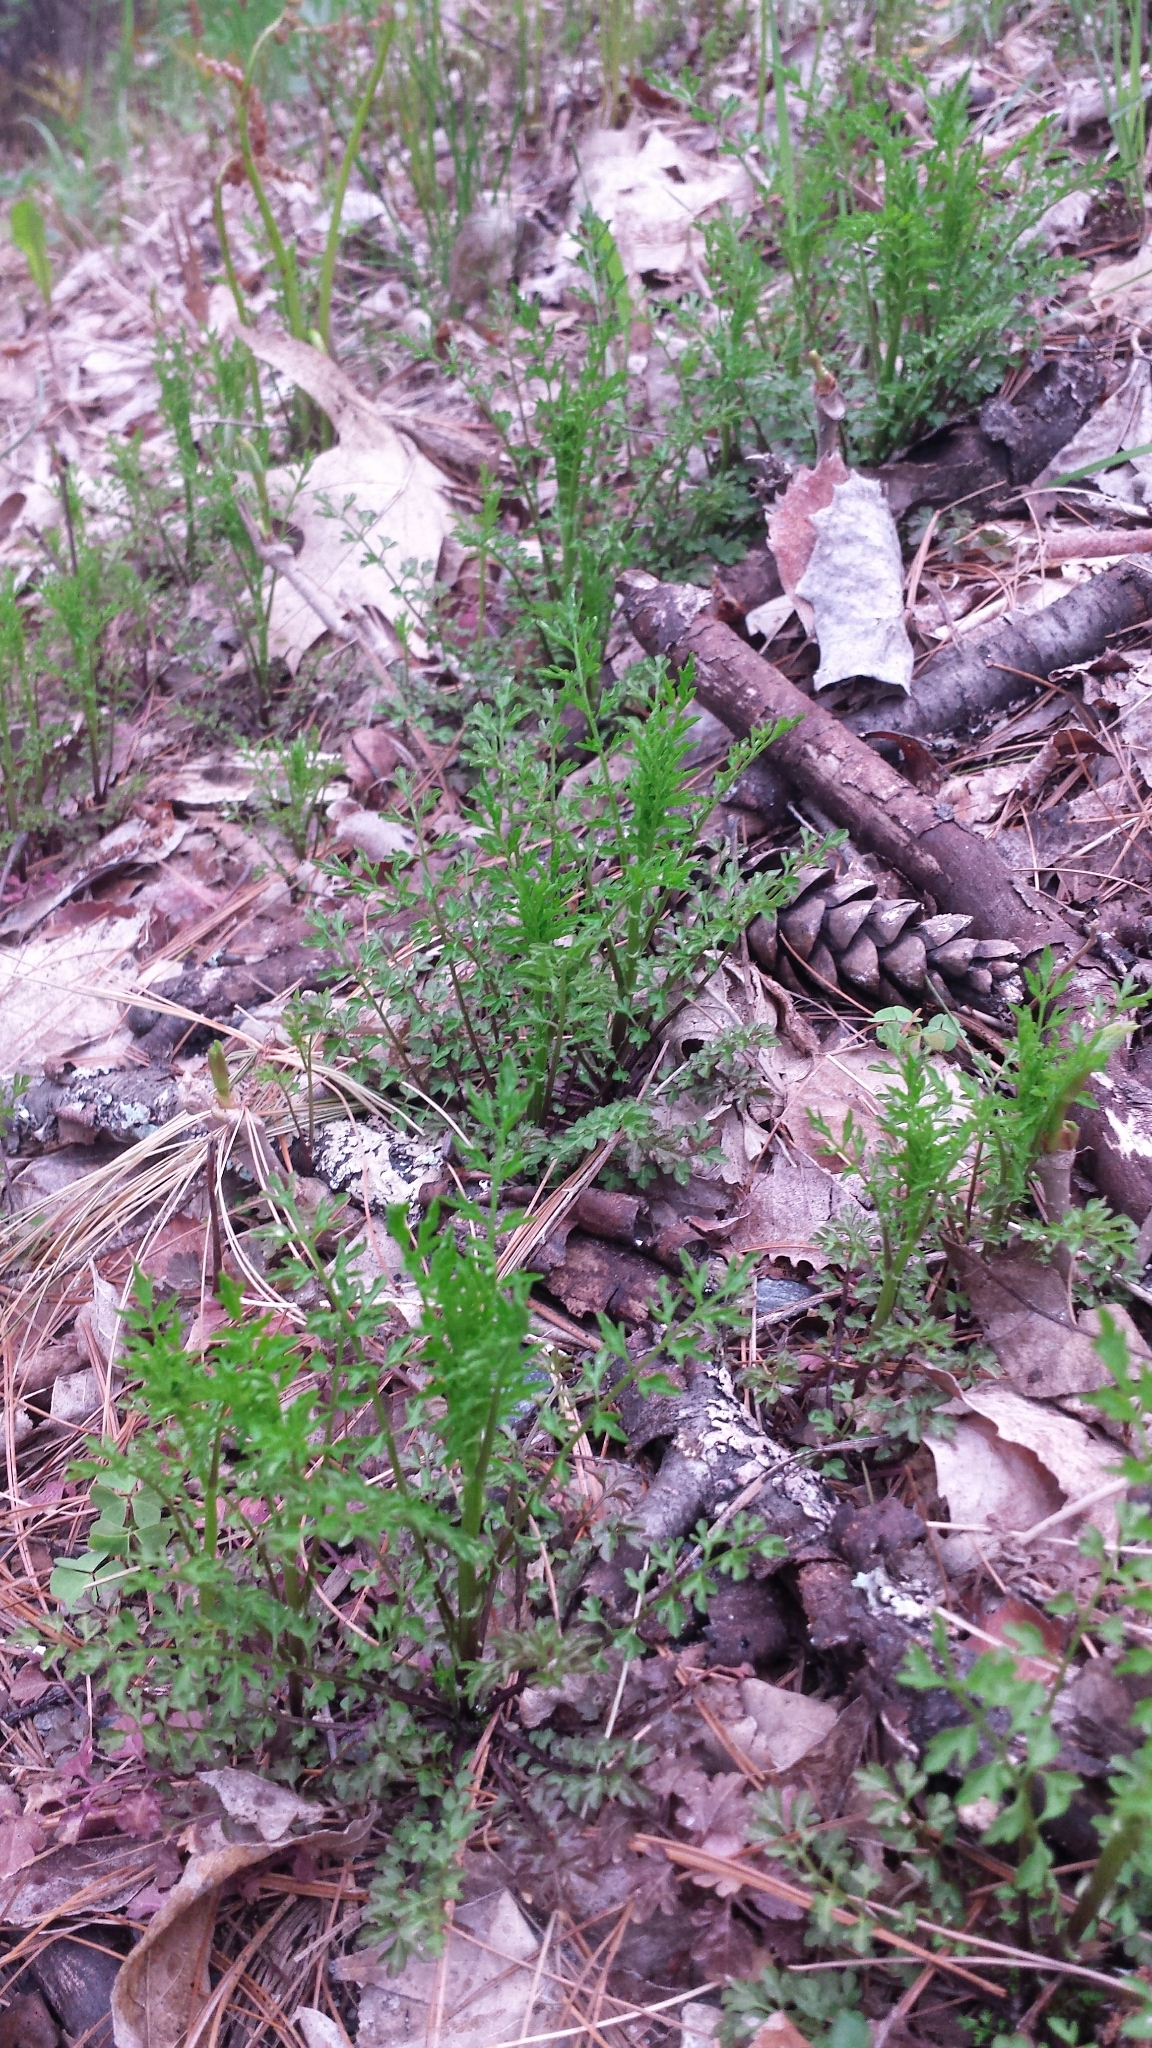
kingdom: Plantae
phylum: Tracheophyta
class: Magnoliopsida
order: Brassicales
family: Brassicaceae
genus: Cardamine
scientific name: Cardamine impatiens
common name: Narrow-leaved bitter-cress
